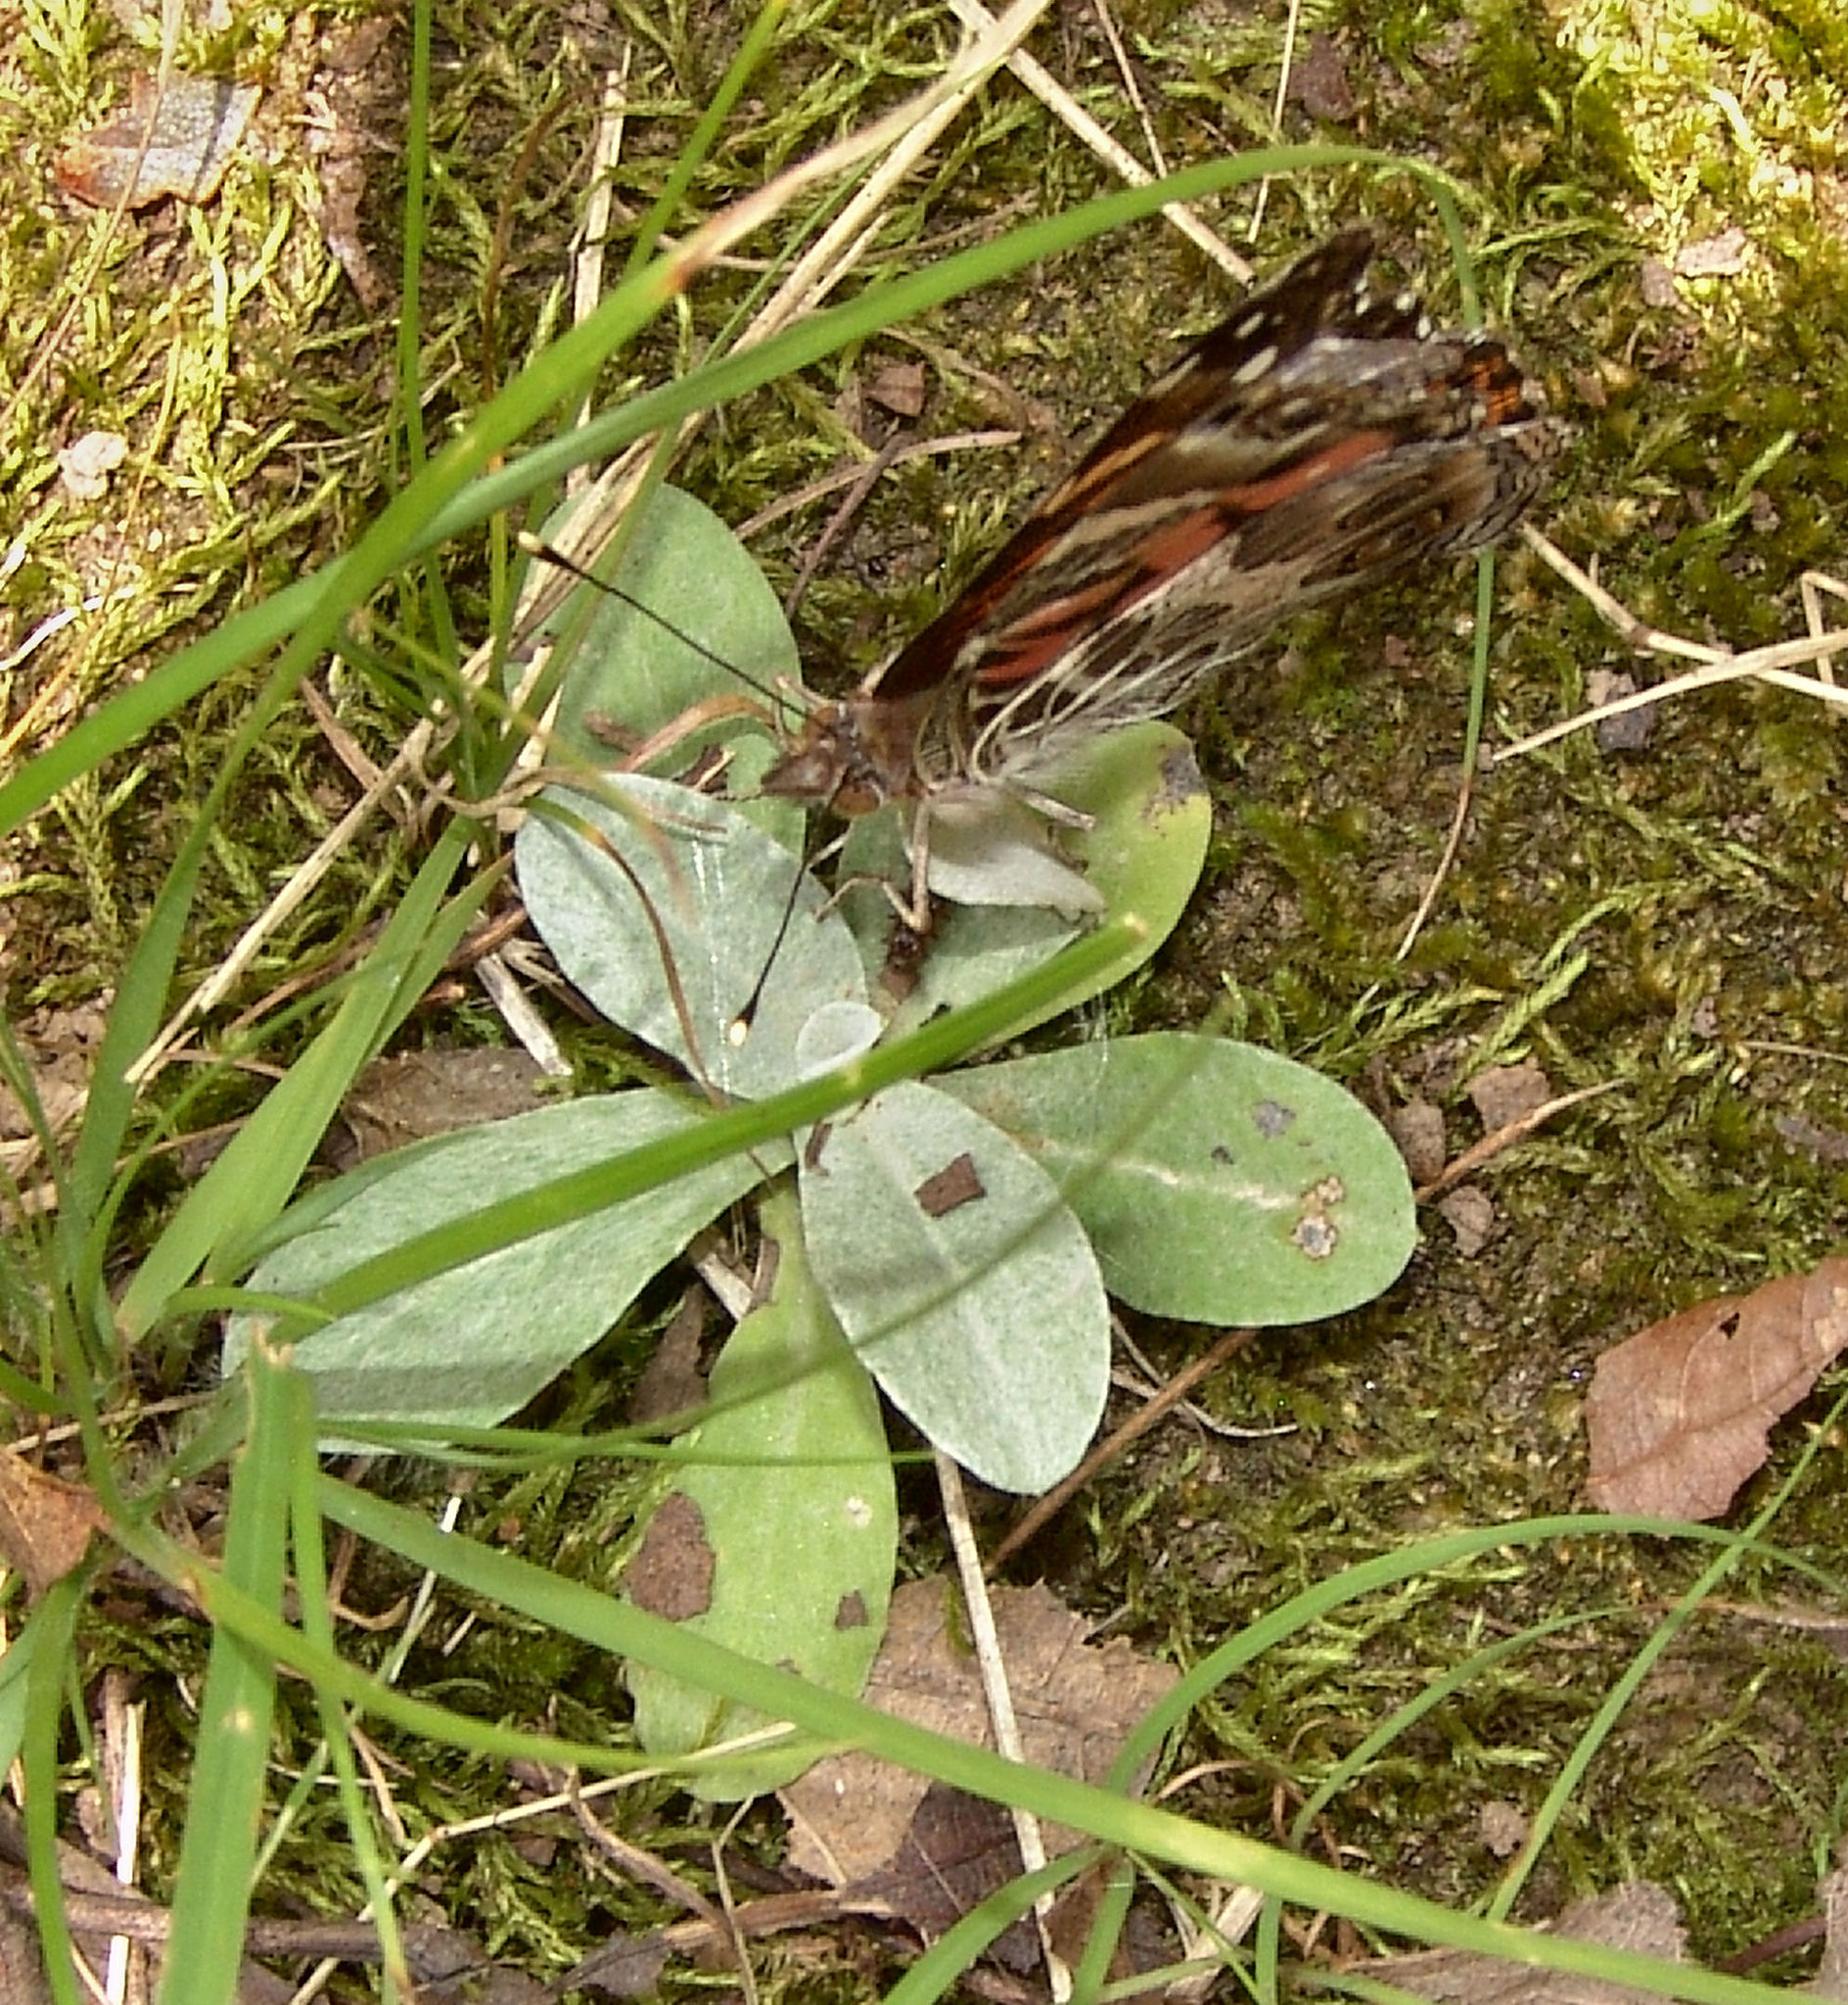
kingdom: Animalia
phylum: Arthropoda
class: Insecta
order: Lepidoptera
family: Nymphalidae
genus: Vanessa
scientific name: Vanessa virginiensis
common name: American lady
